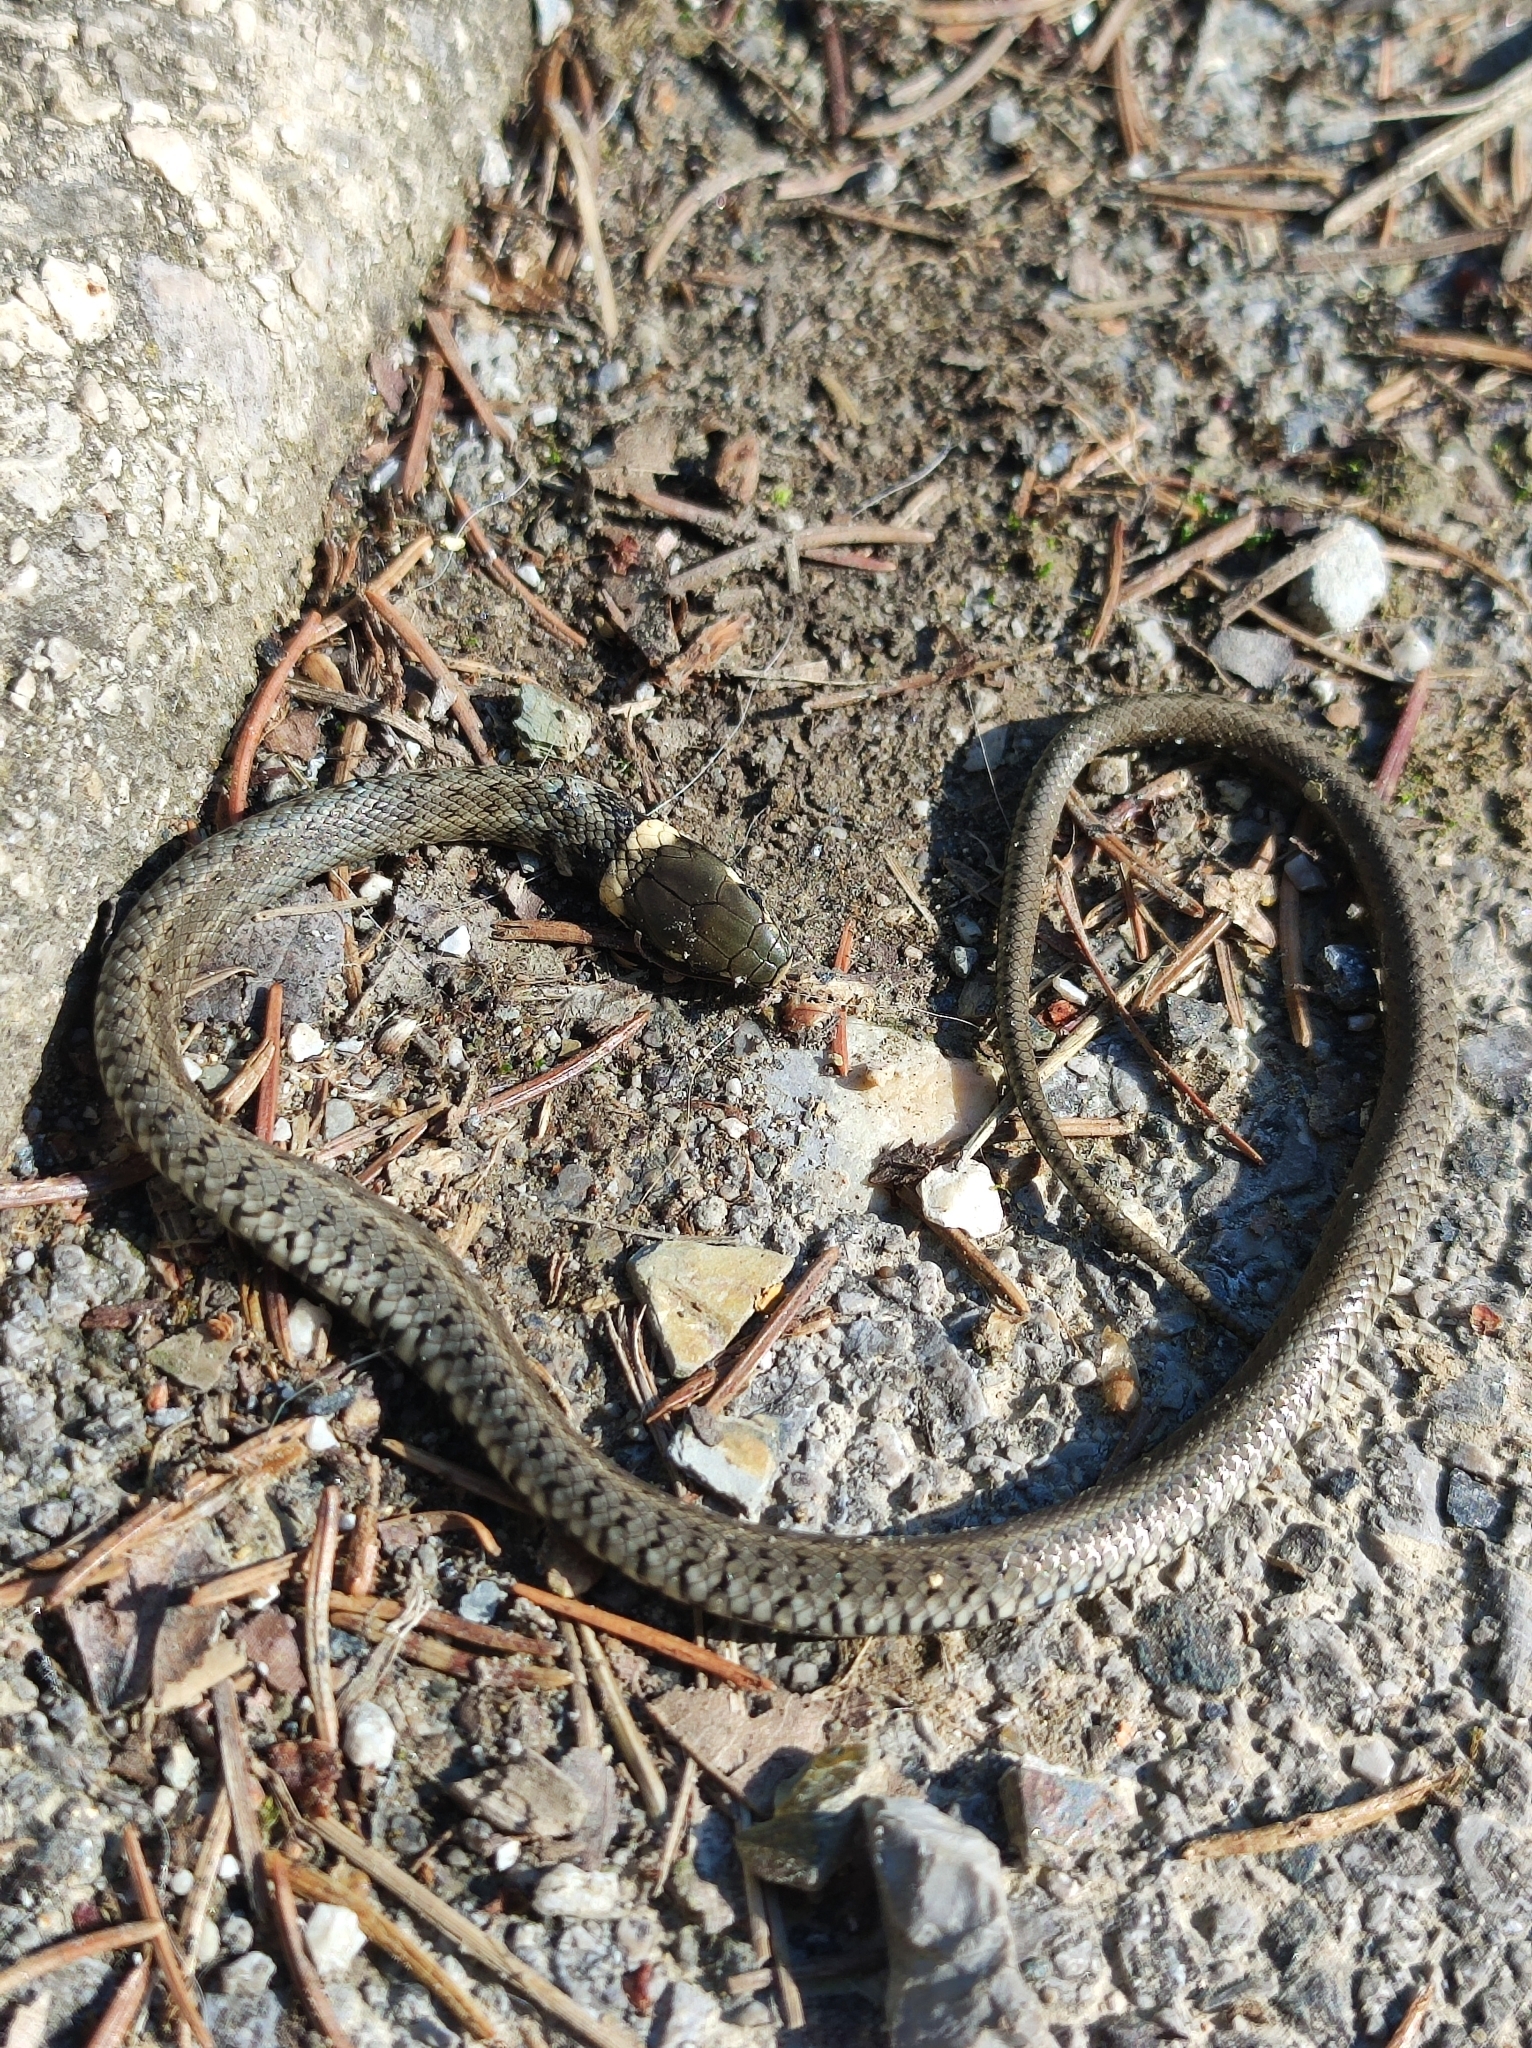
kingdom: Animalia
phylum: Chordata
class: Squamata
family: Colubridae
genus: Natrix
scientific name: Natrix natrix
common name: Grass snake
